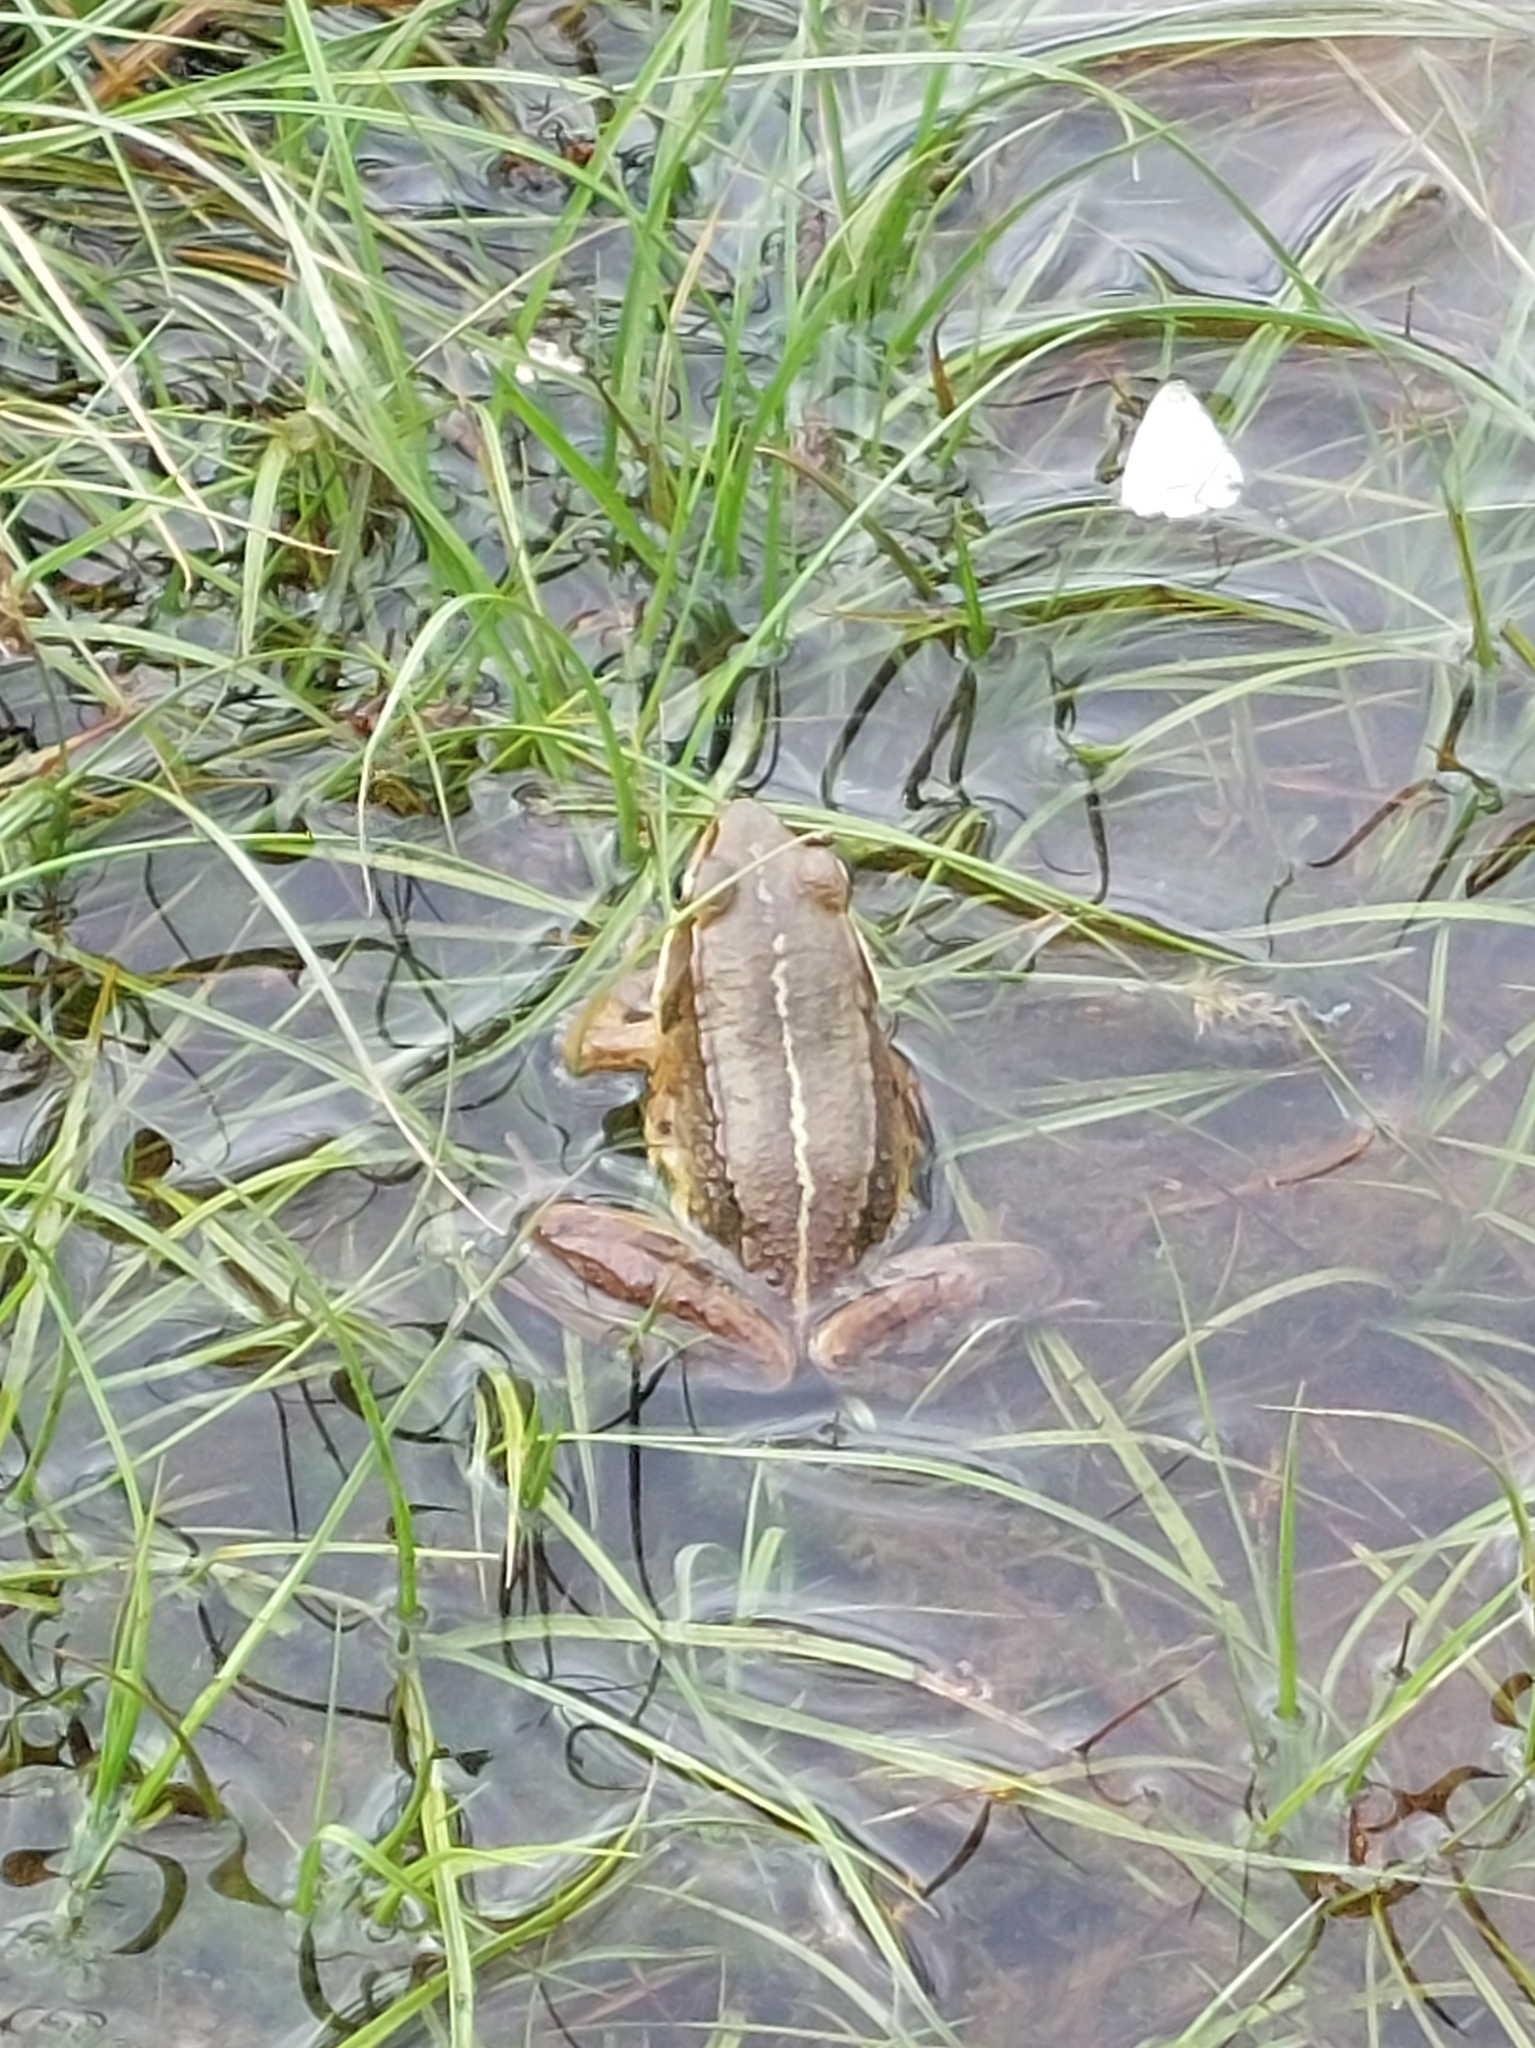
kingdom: Animalia
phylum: Chordata
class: Amphibia
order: Anura
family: Ranidae
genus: Nidirana
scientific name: Nidirana adenopleura
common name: Olive frog
